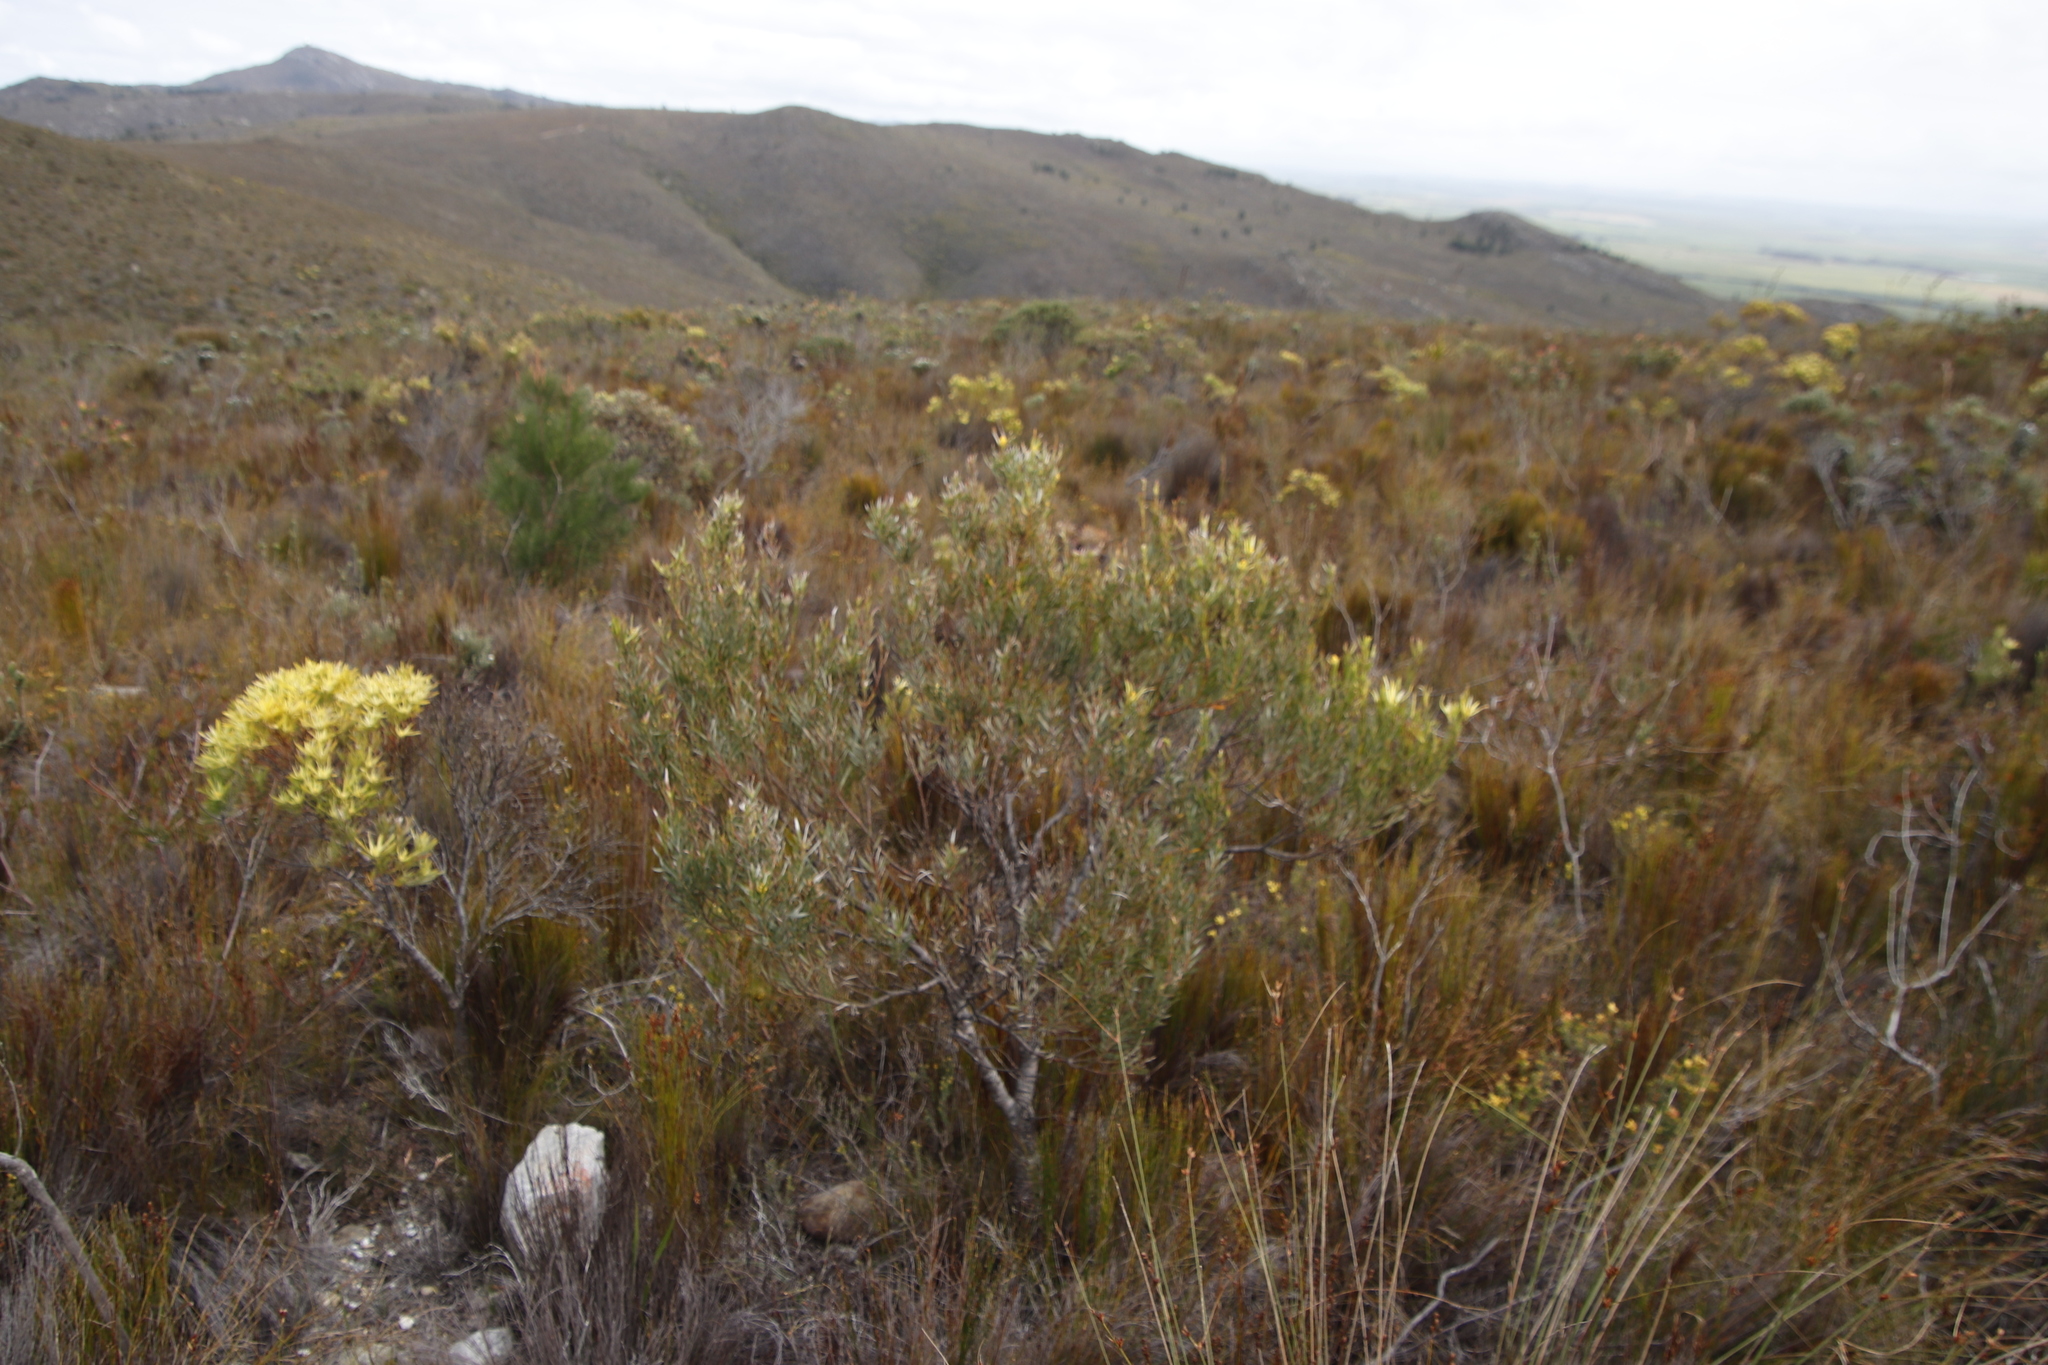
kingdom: Plantae
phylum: Tracheophyta
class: Magnoliopsida
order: Proteales
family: Proteaceae
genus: Leucadendron
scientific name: Leucadendron xanthoconus
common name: Sickle-leaf conebush
